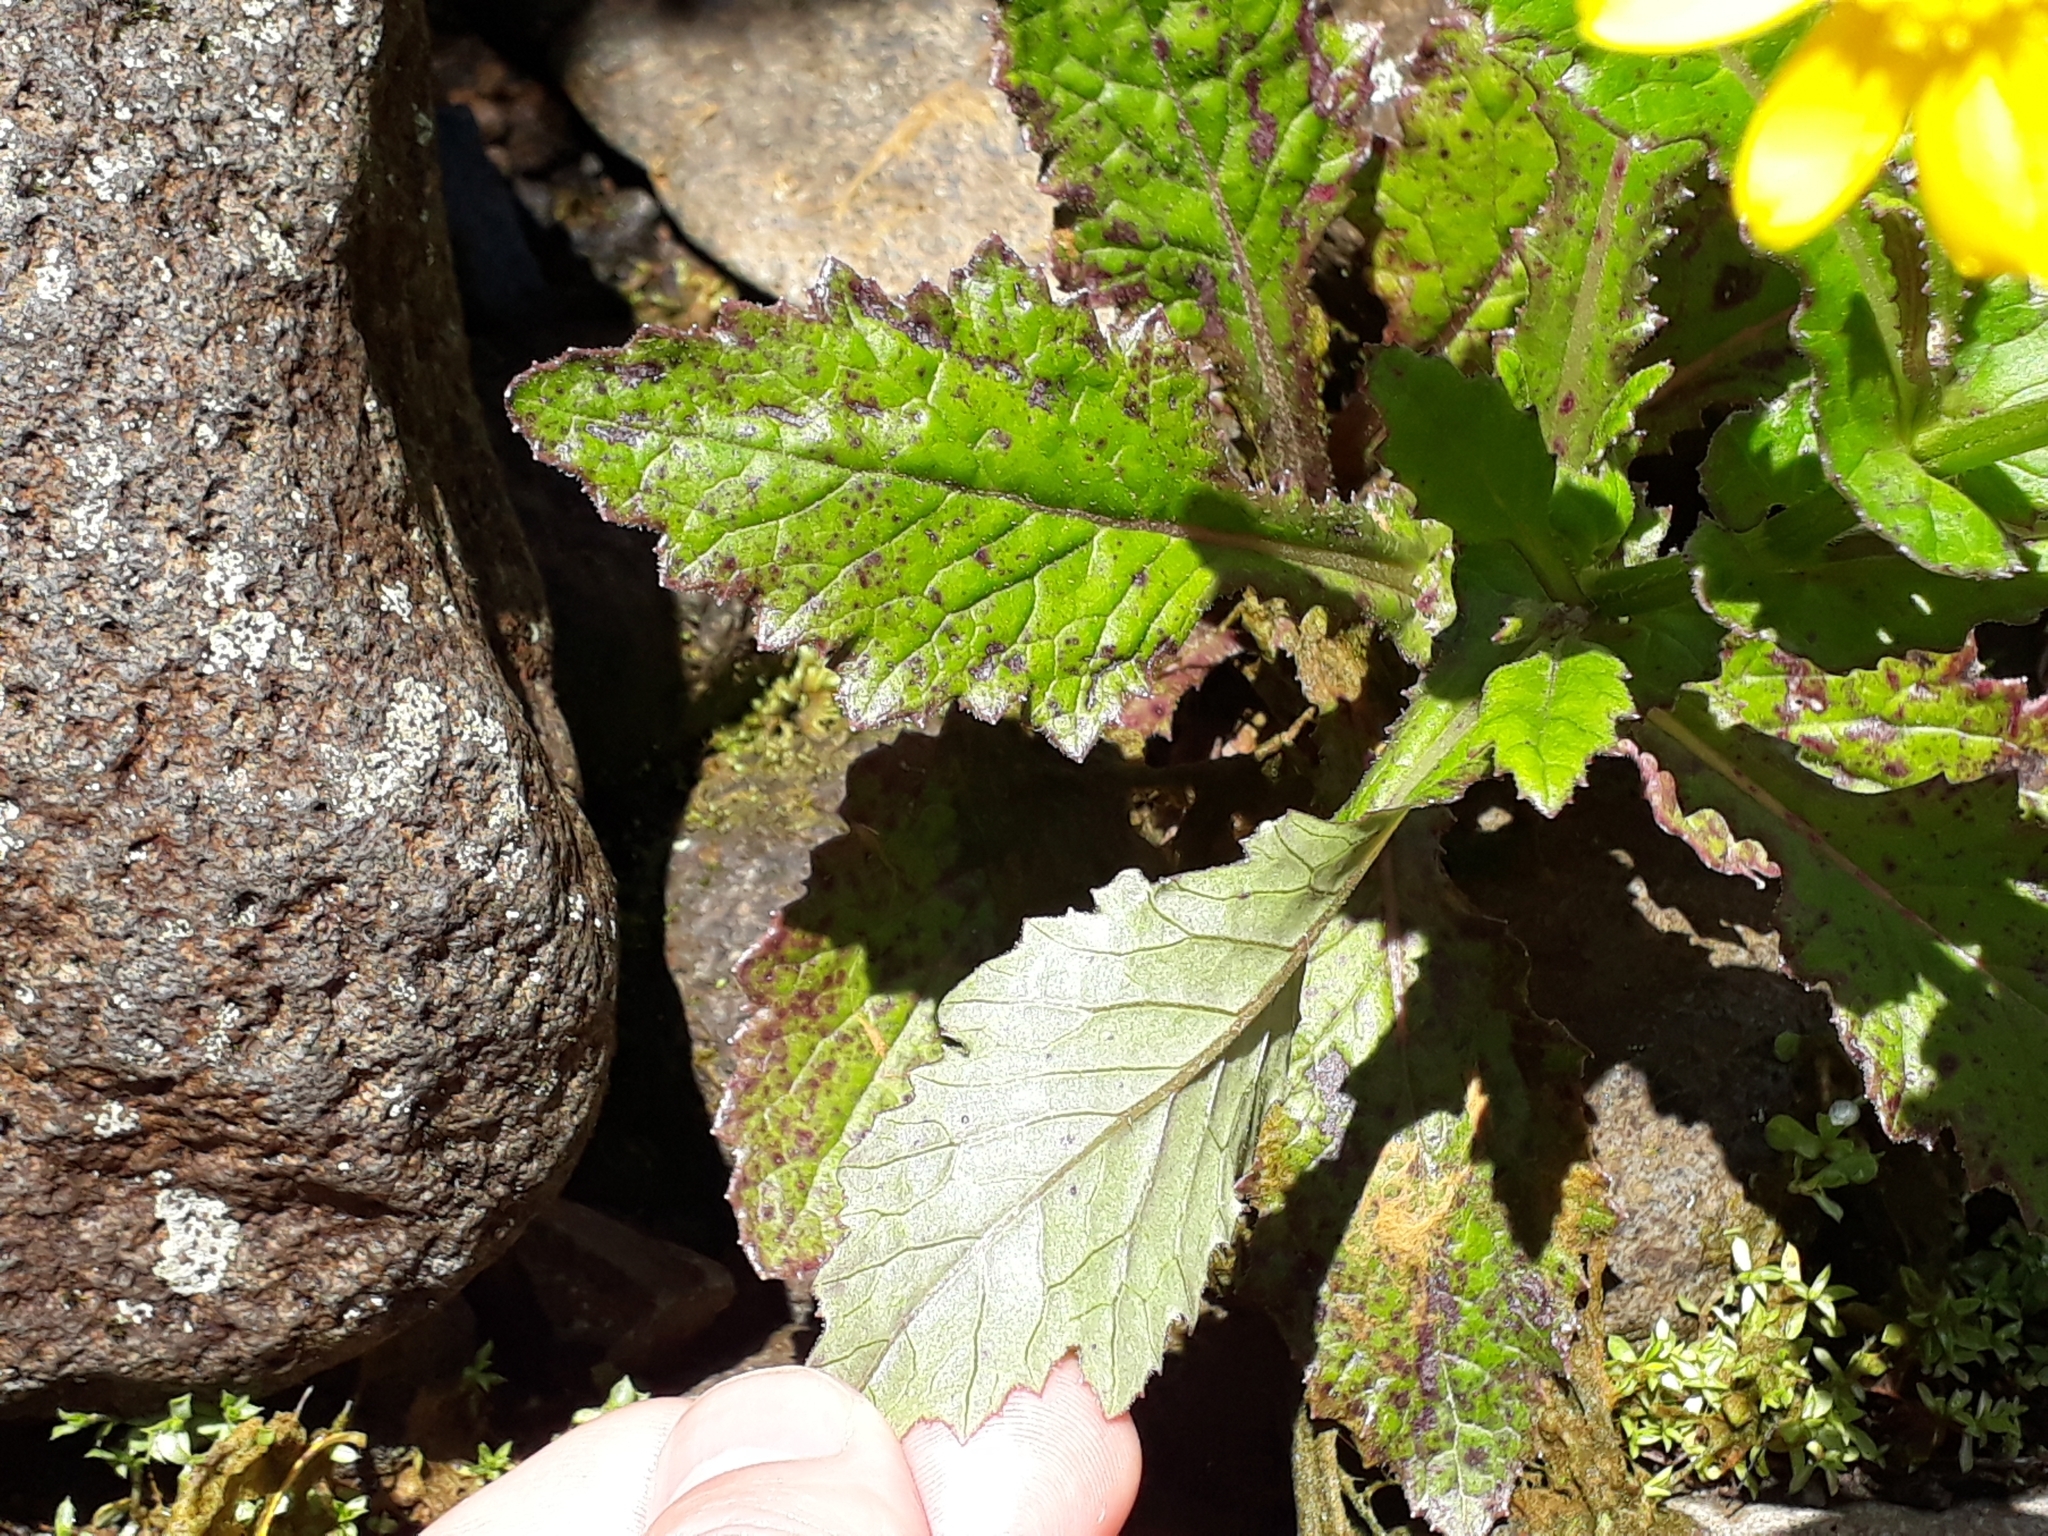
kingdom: Plantae
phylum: Tracheophyta
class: Magnoliopsida
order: Asterales
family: Asteraceae
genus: Senecio
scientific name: Senecio rufiglandulosus
